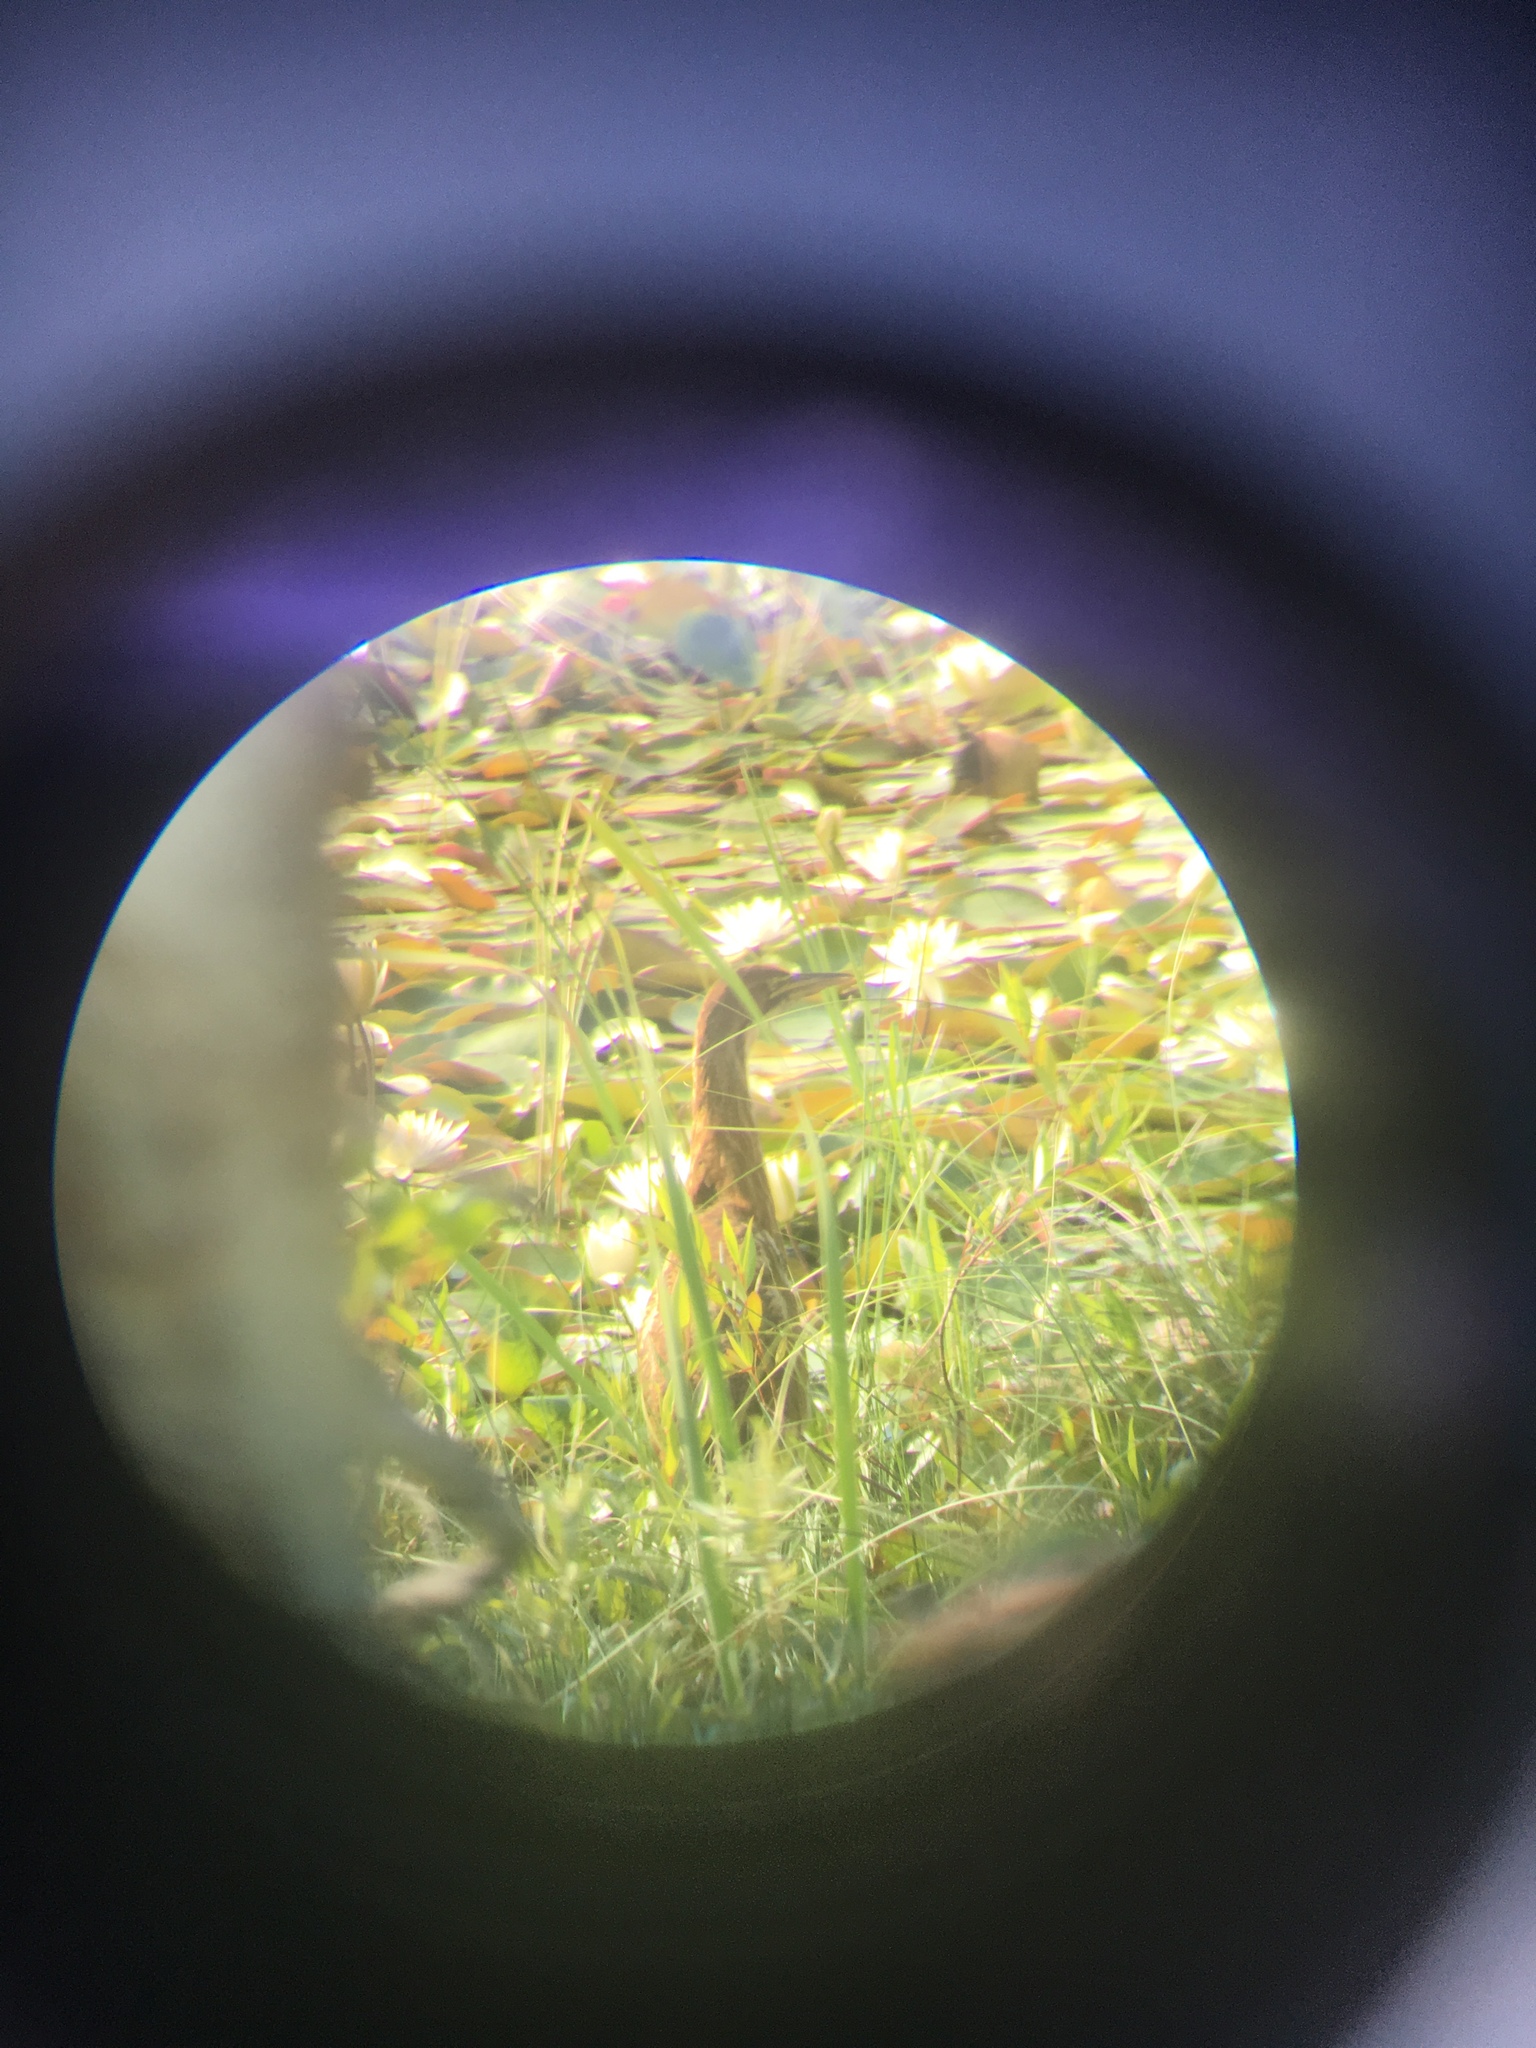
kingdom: Animalia
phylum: Chordata
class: Aves
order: Pelecaniformes
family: Ardeidae
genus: Botaurus
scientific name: Botaurus lentiginosus
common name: American bittern
